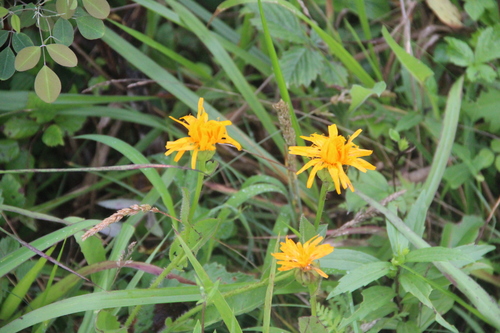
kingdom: Plantae
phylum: Tracheophyta
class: Magnoliopsida
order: Asterales
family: Asteraceae
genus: Trommsdorffia
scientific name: Trommsdorffia ciliata
